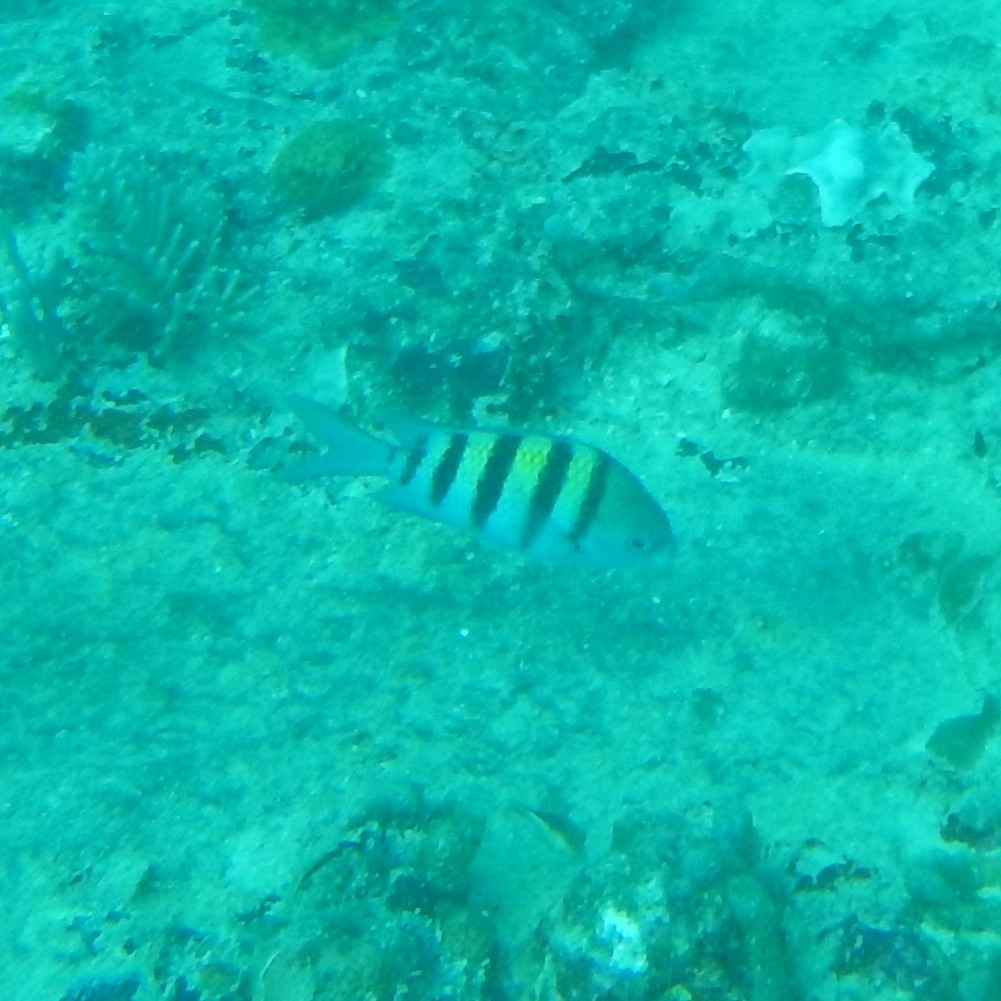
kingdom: Animalia
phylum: Chordata
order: Perciformes
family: Pomacentridae
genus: Abudefduf
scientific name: Abudefduf saxatilis
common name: Sergeant major
